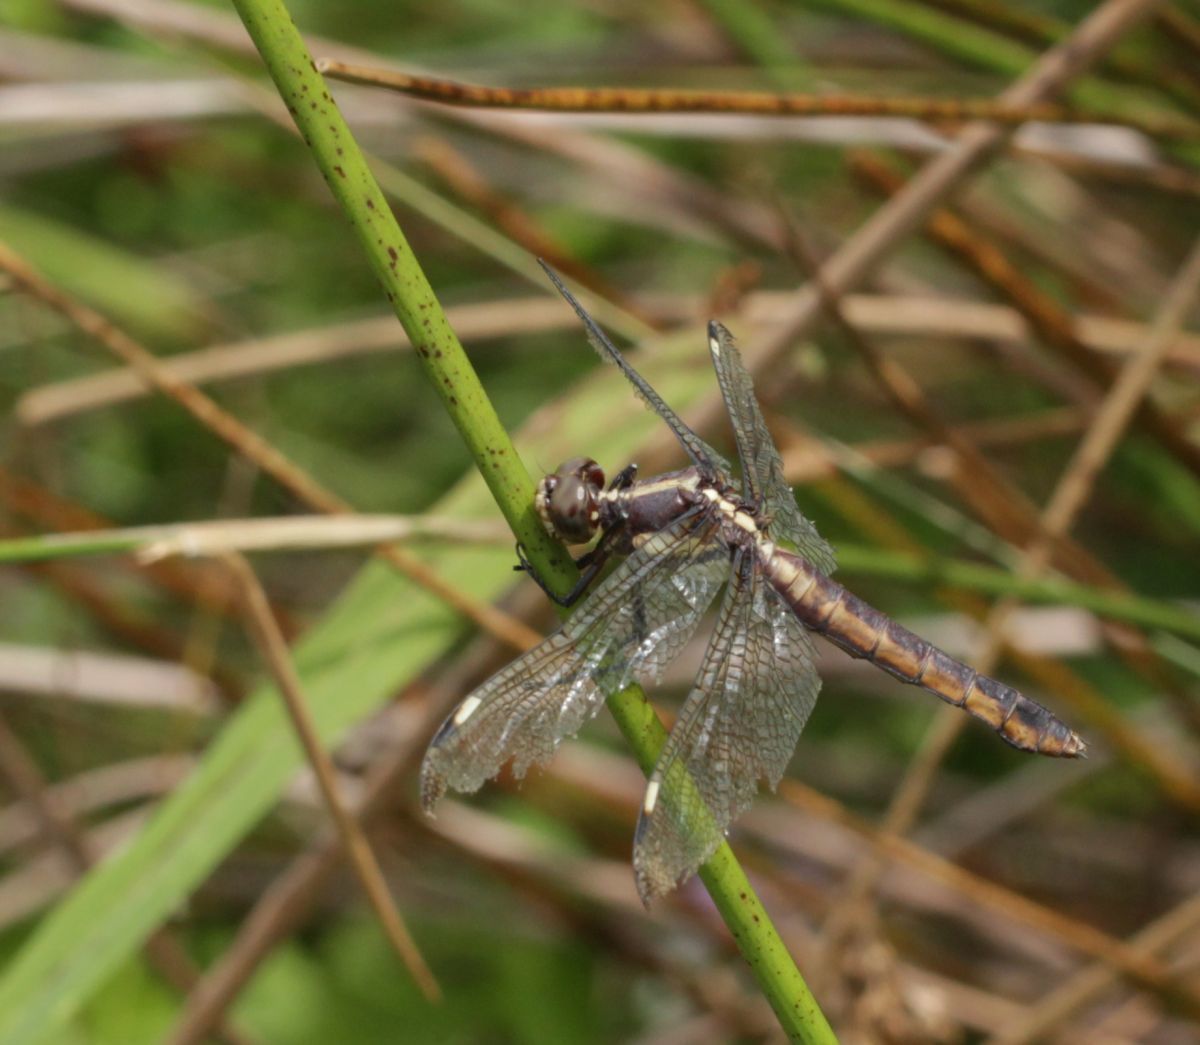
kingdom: Animalia
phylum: Arthropoda
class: Insecta
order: Odonata
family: Libellulidae
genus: Libellula
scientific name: Libellula cyanea
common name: Spangled skimmer
